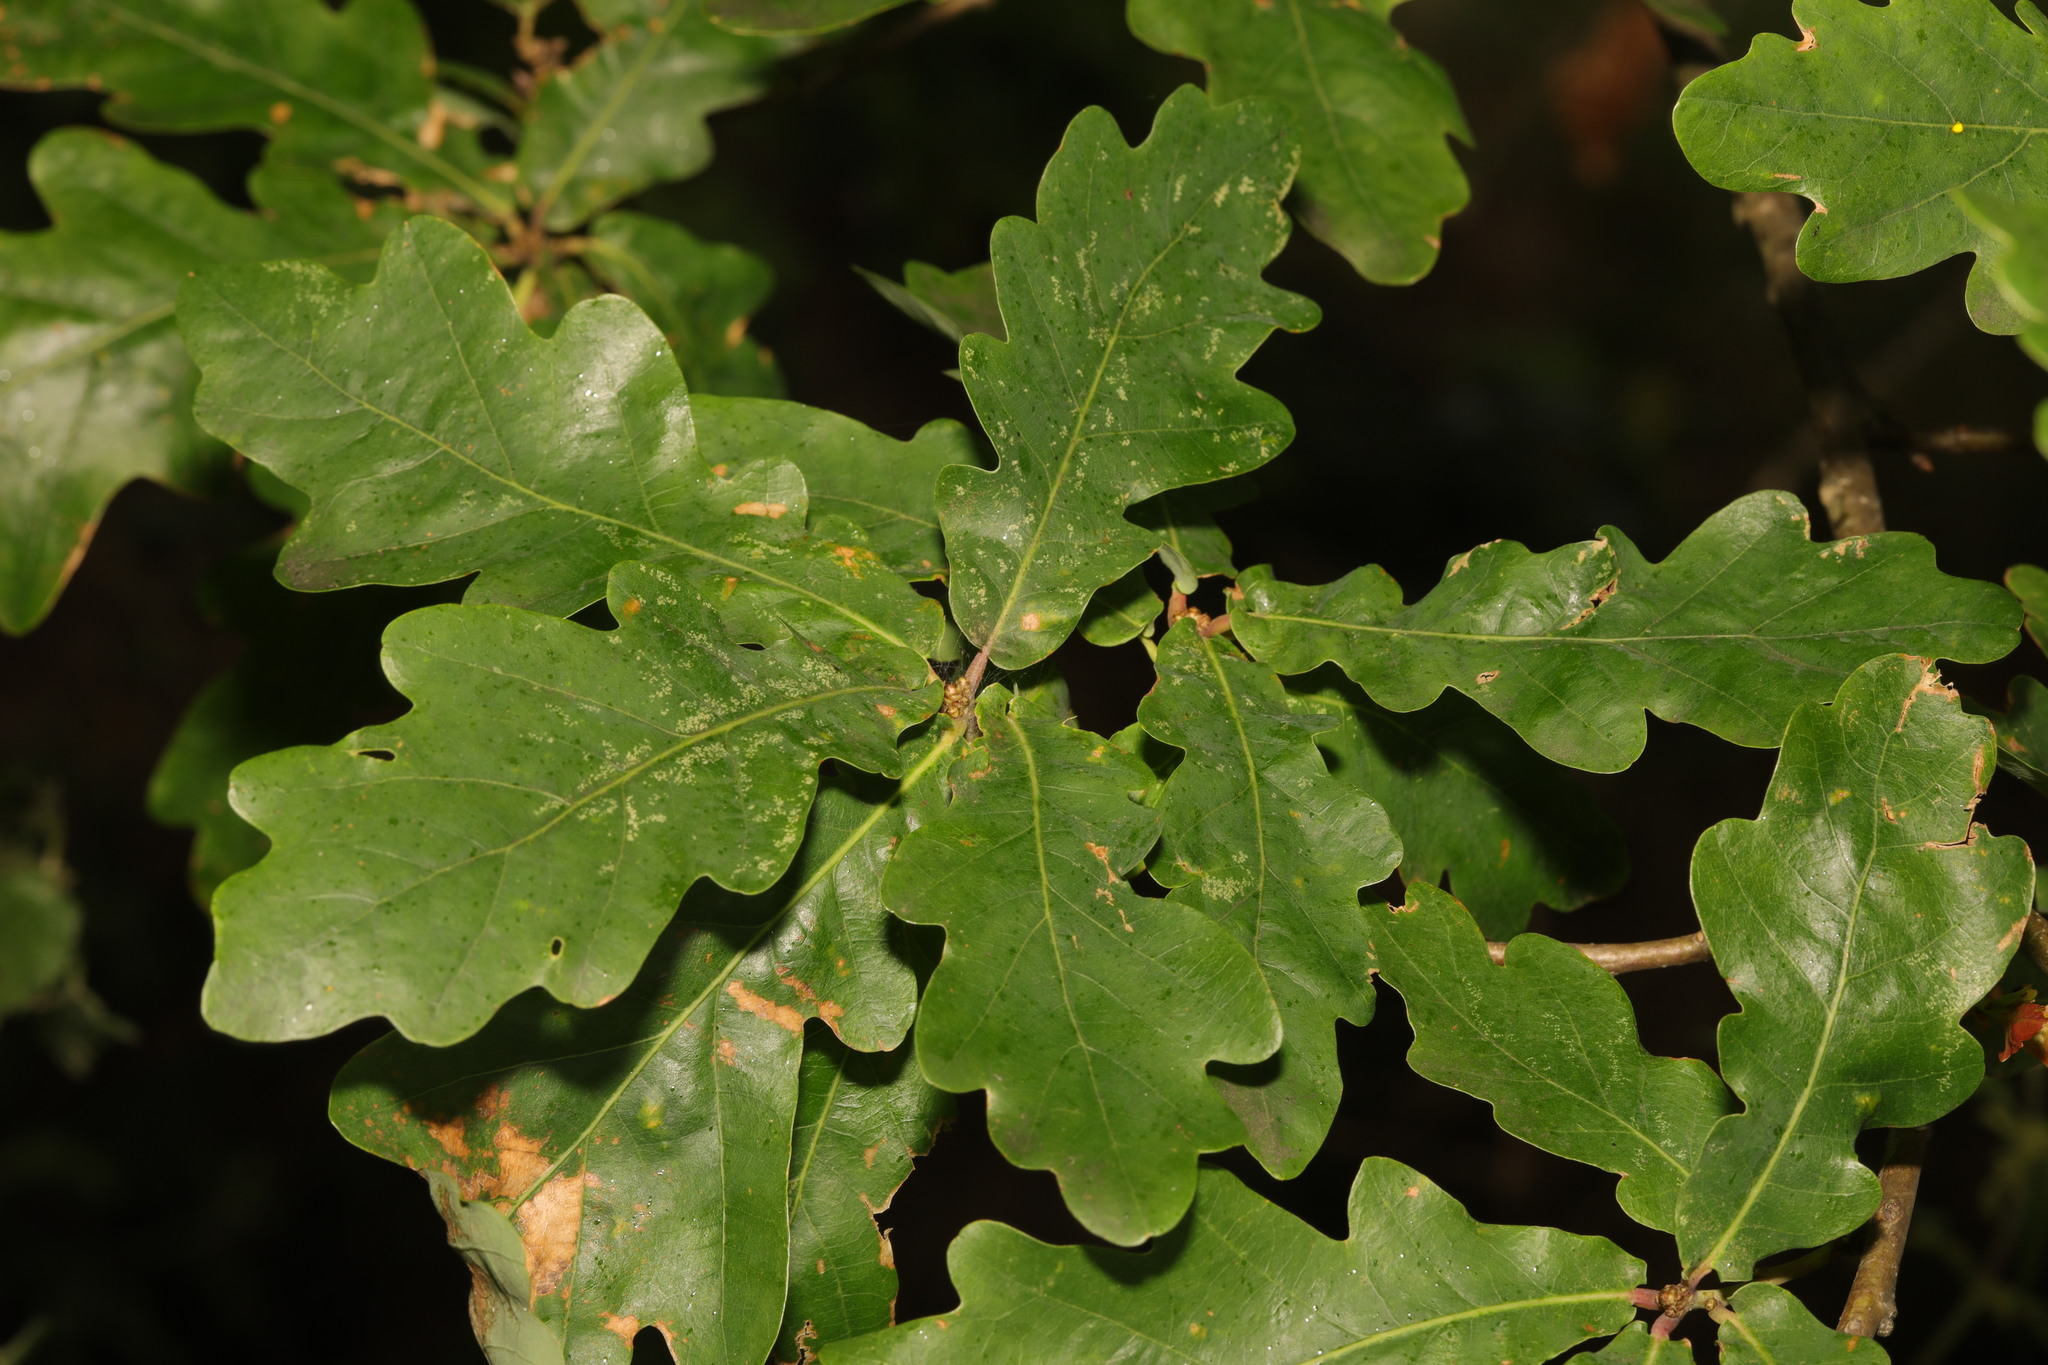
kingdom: Plantae
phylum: Tracheophyta
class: Magnoliopsida
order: Fagales
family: Fagaceae
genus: Quercus
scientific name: Quercus robur
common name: Pedunculate oak
